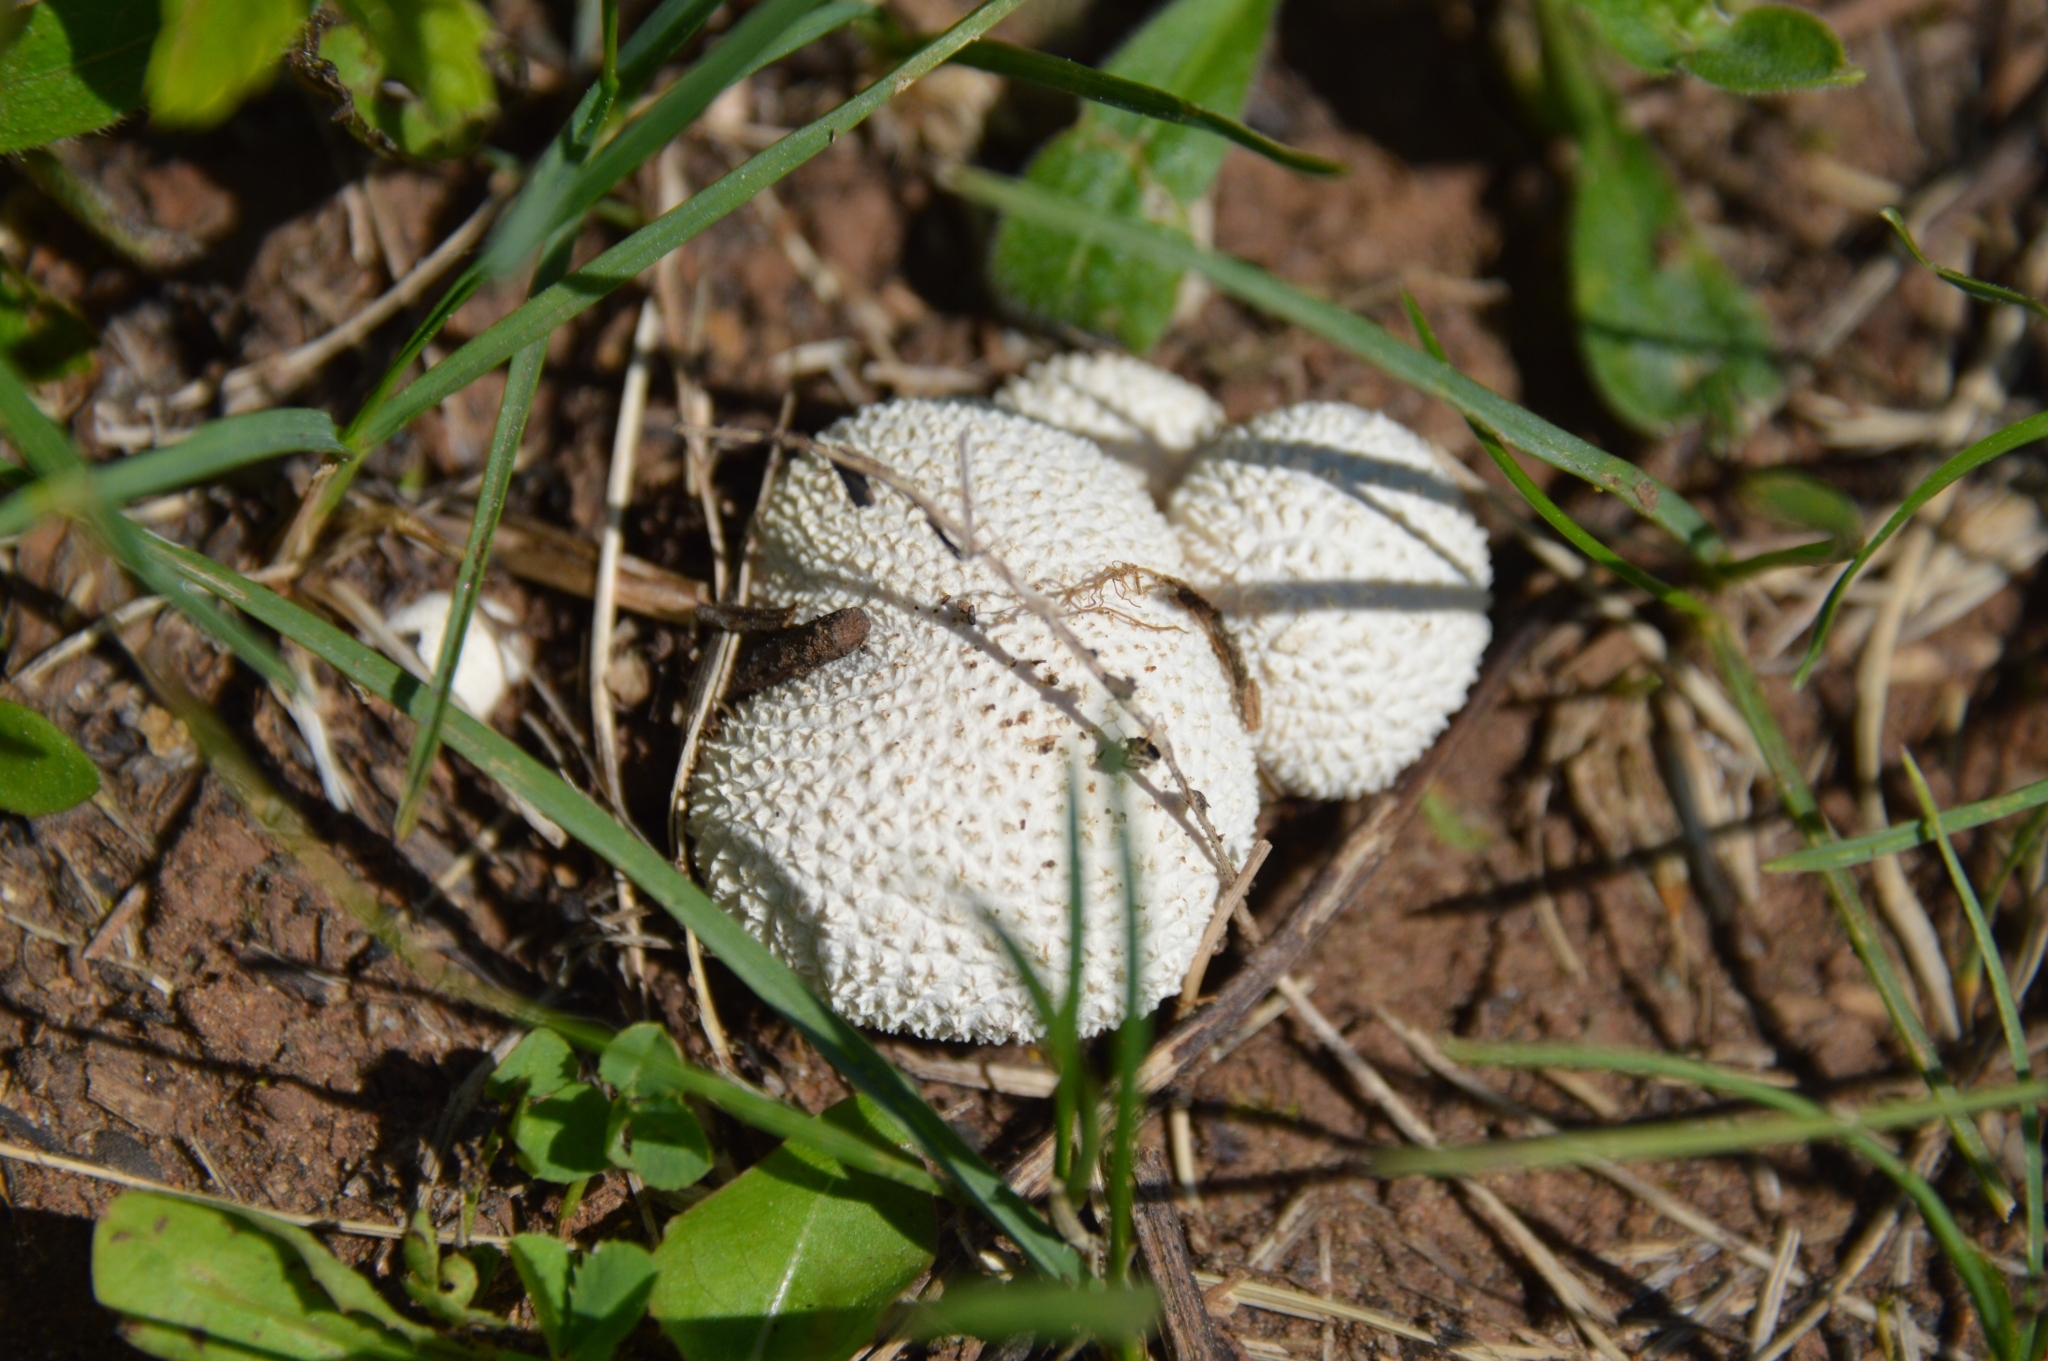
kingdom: Fungi
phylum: Basidiomycota
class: Agaricomycetes
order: Agaricales
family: Agaricaceae
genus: Lycoperdon
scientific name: Lycoperdon marginatum
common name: Peeling puffball
